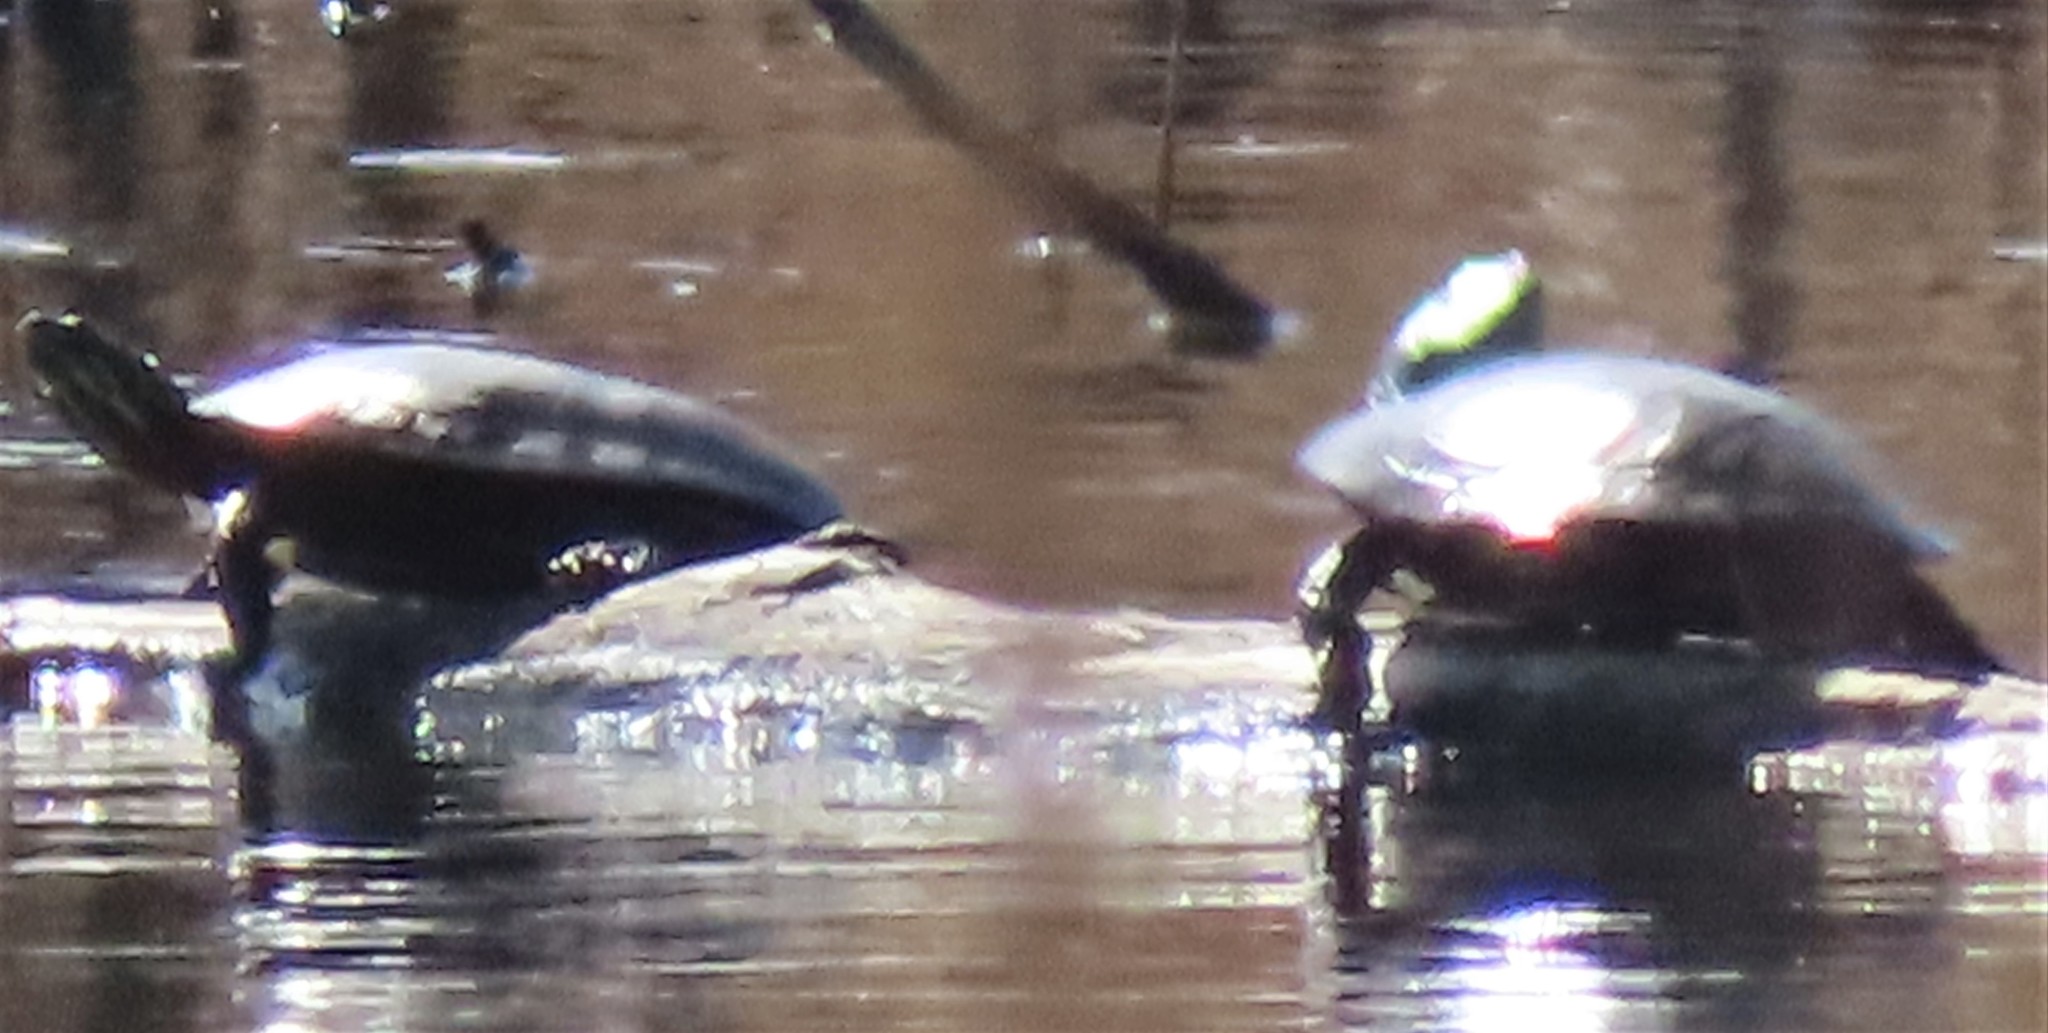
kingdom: Animalia
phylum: Chordata
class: Testudines
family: Emydidae
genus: Chrysemys
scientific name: Chrysemys picta
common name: Painted turtle
